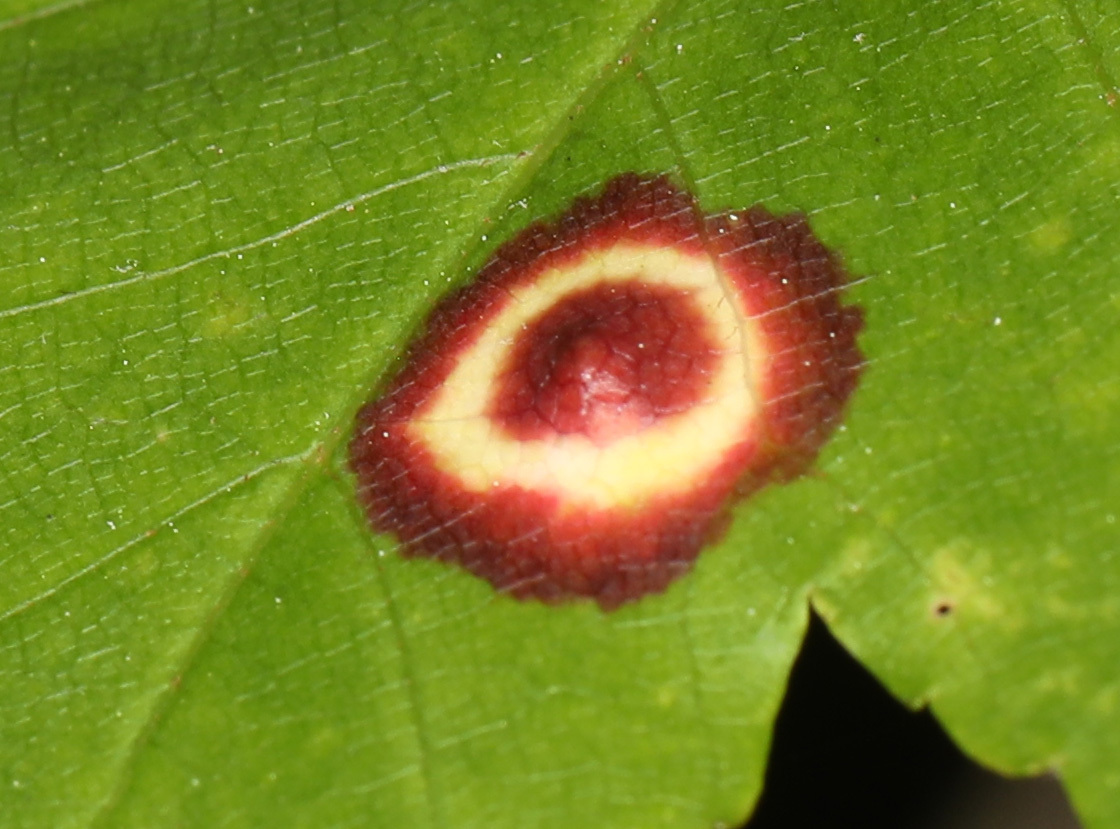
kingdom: Animalia
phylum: Arthropoda
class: Insecta
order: Diptera
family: Cecidomyiidae
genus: Acericecis
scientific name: Acericecis ocellaris
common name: Ocellate gall midge
